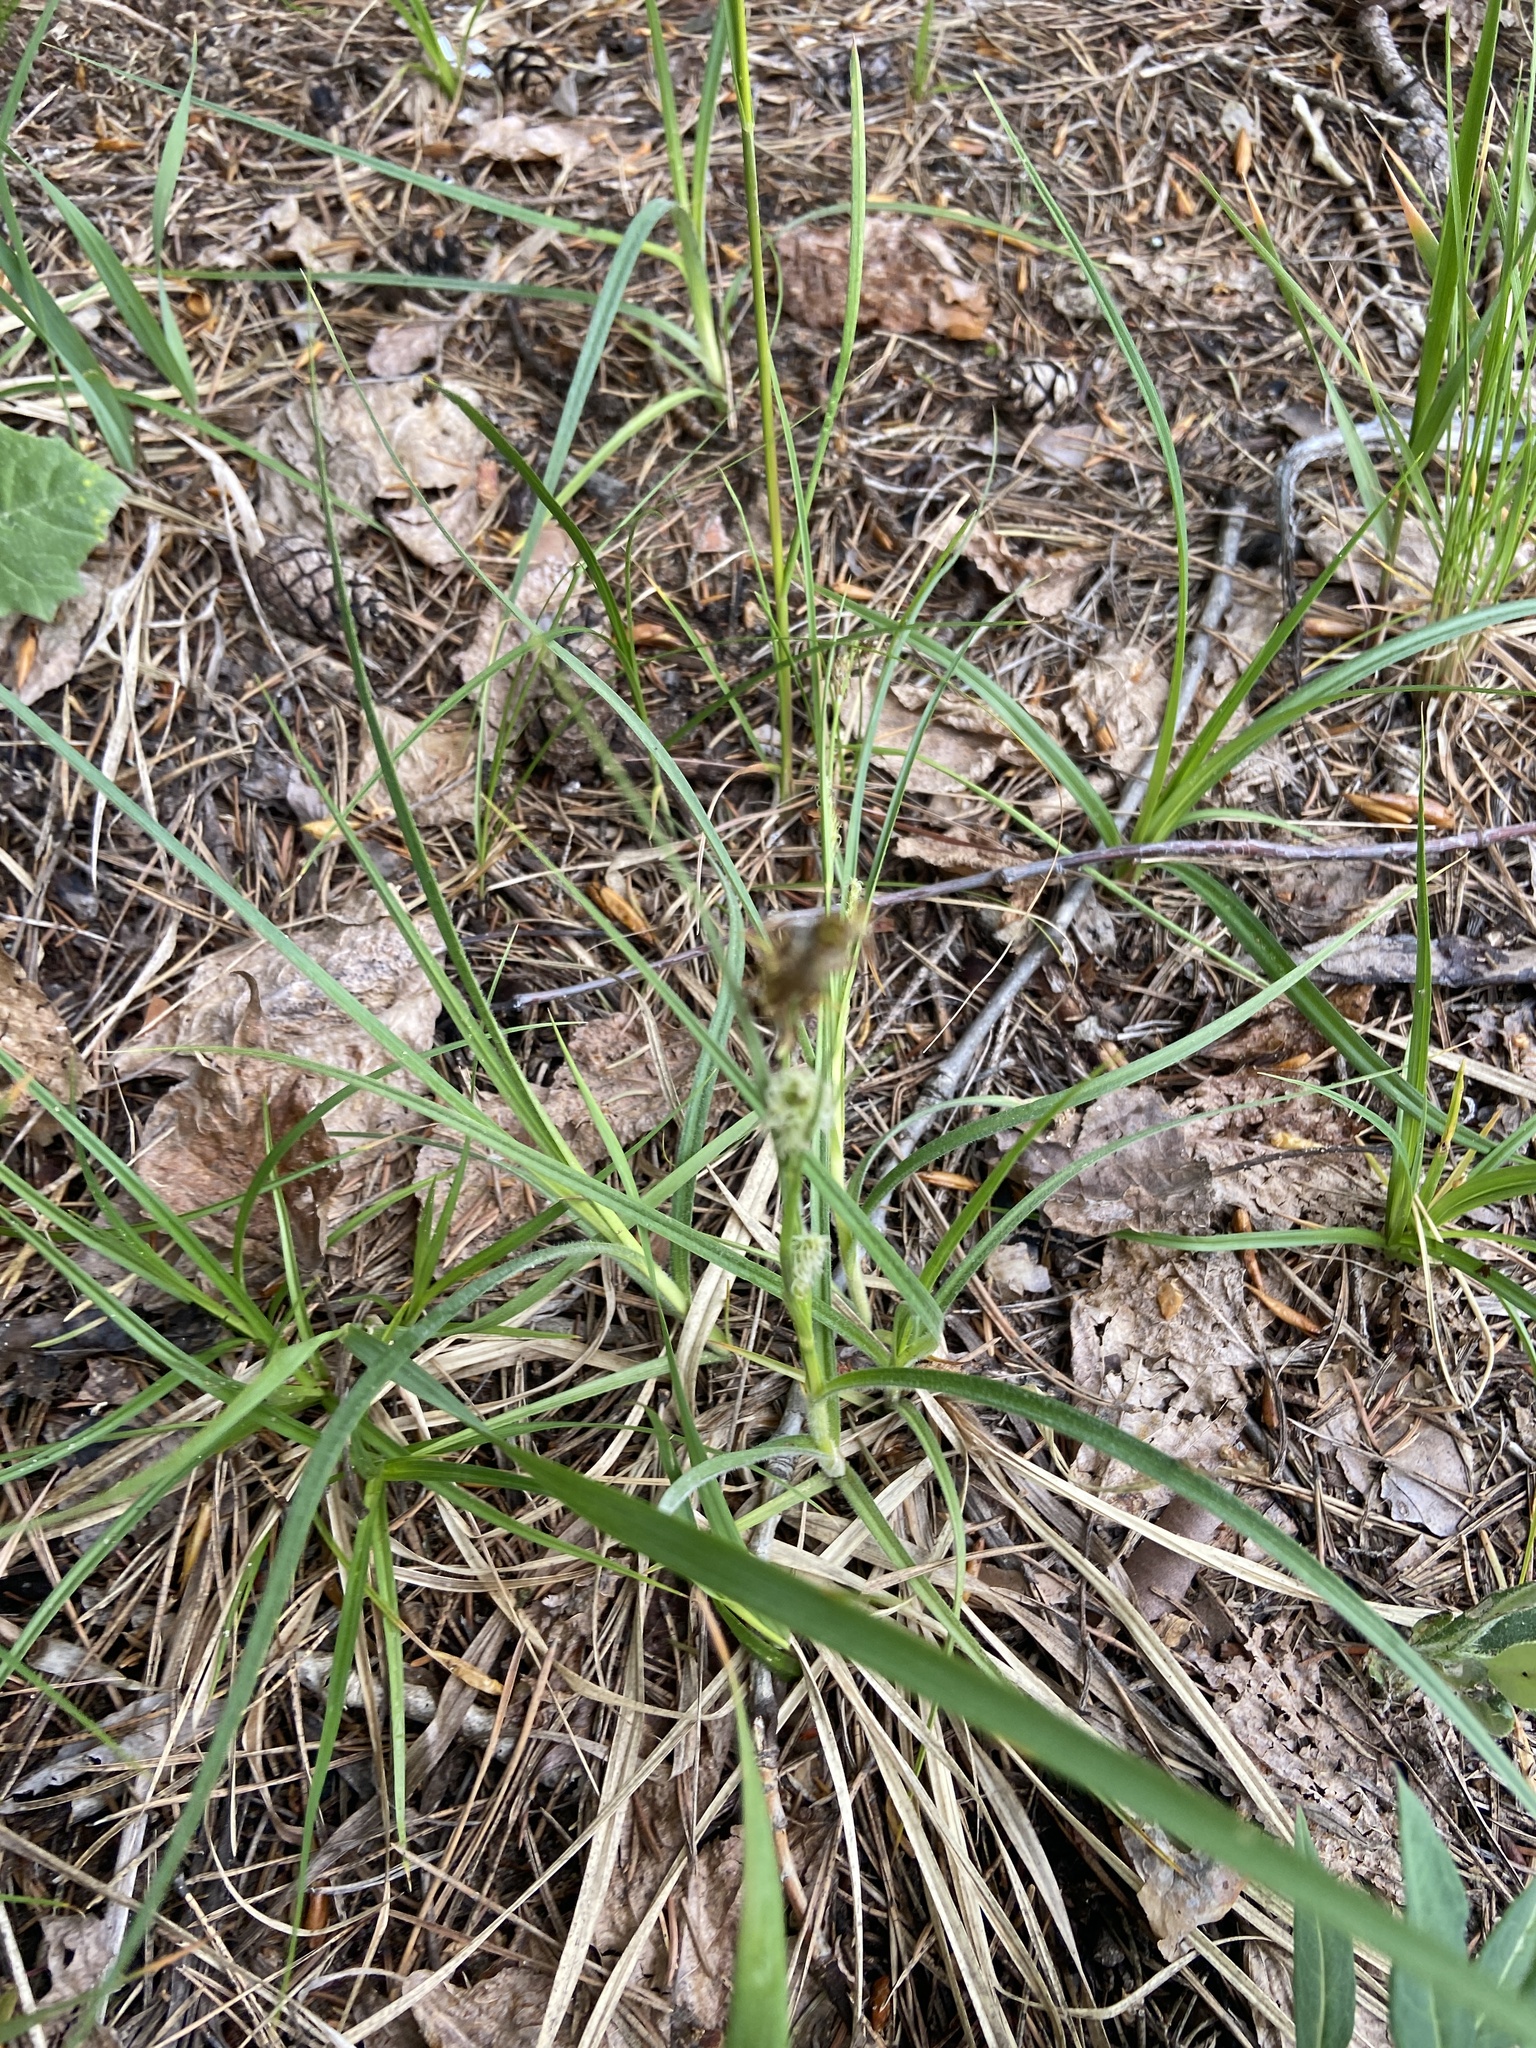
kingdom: Plantae
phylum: Tracheophyta
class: Liliopsida
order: Poales
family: Cyperaceae
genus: Carex
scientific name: Carex hirta
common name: Hairy sedge
